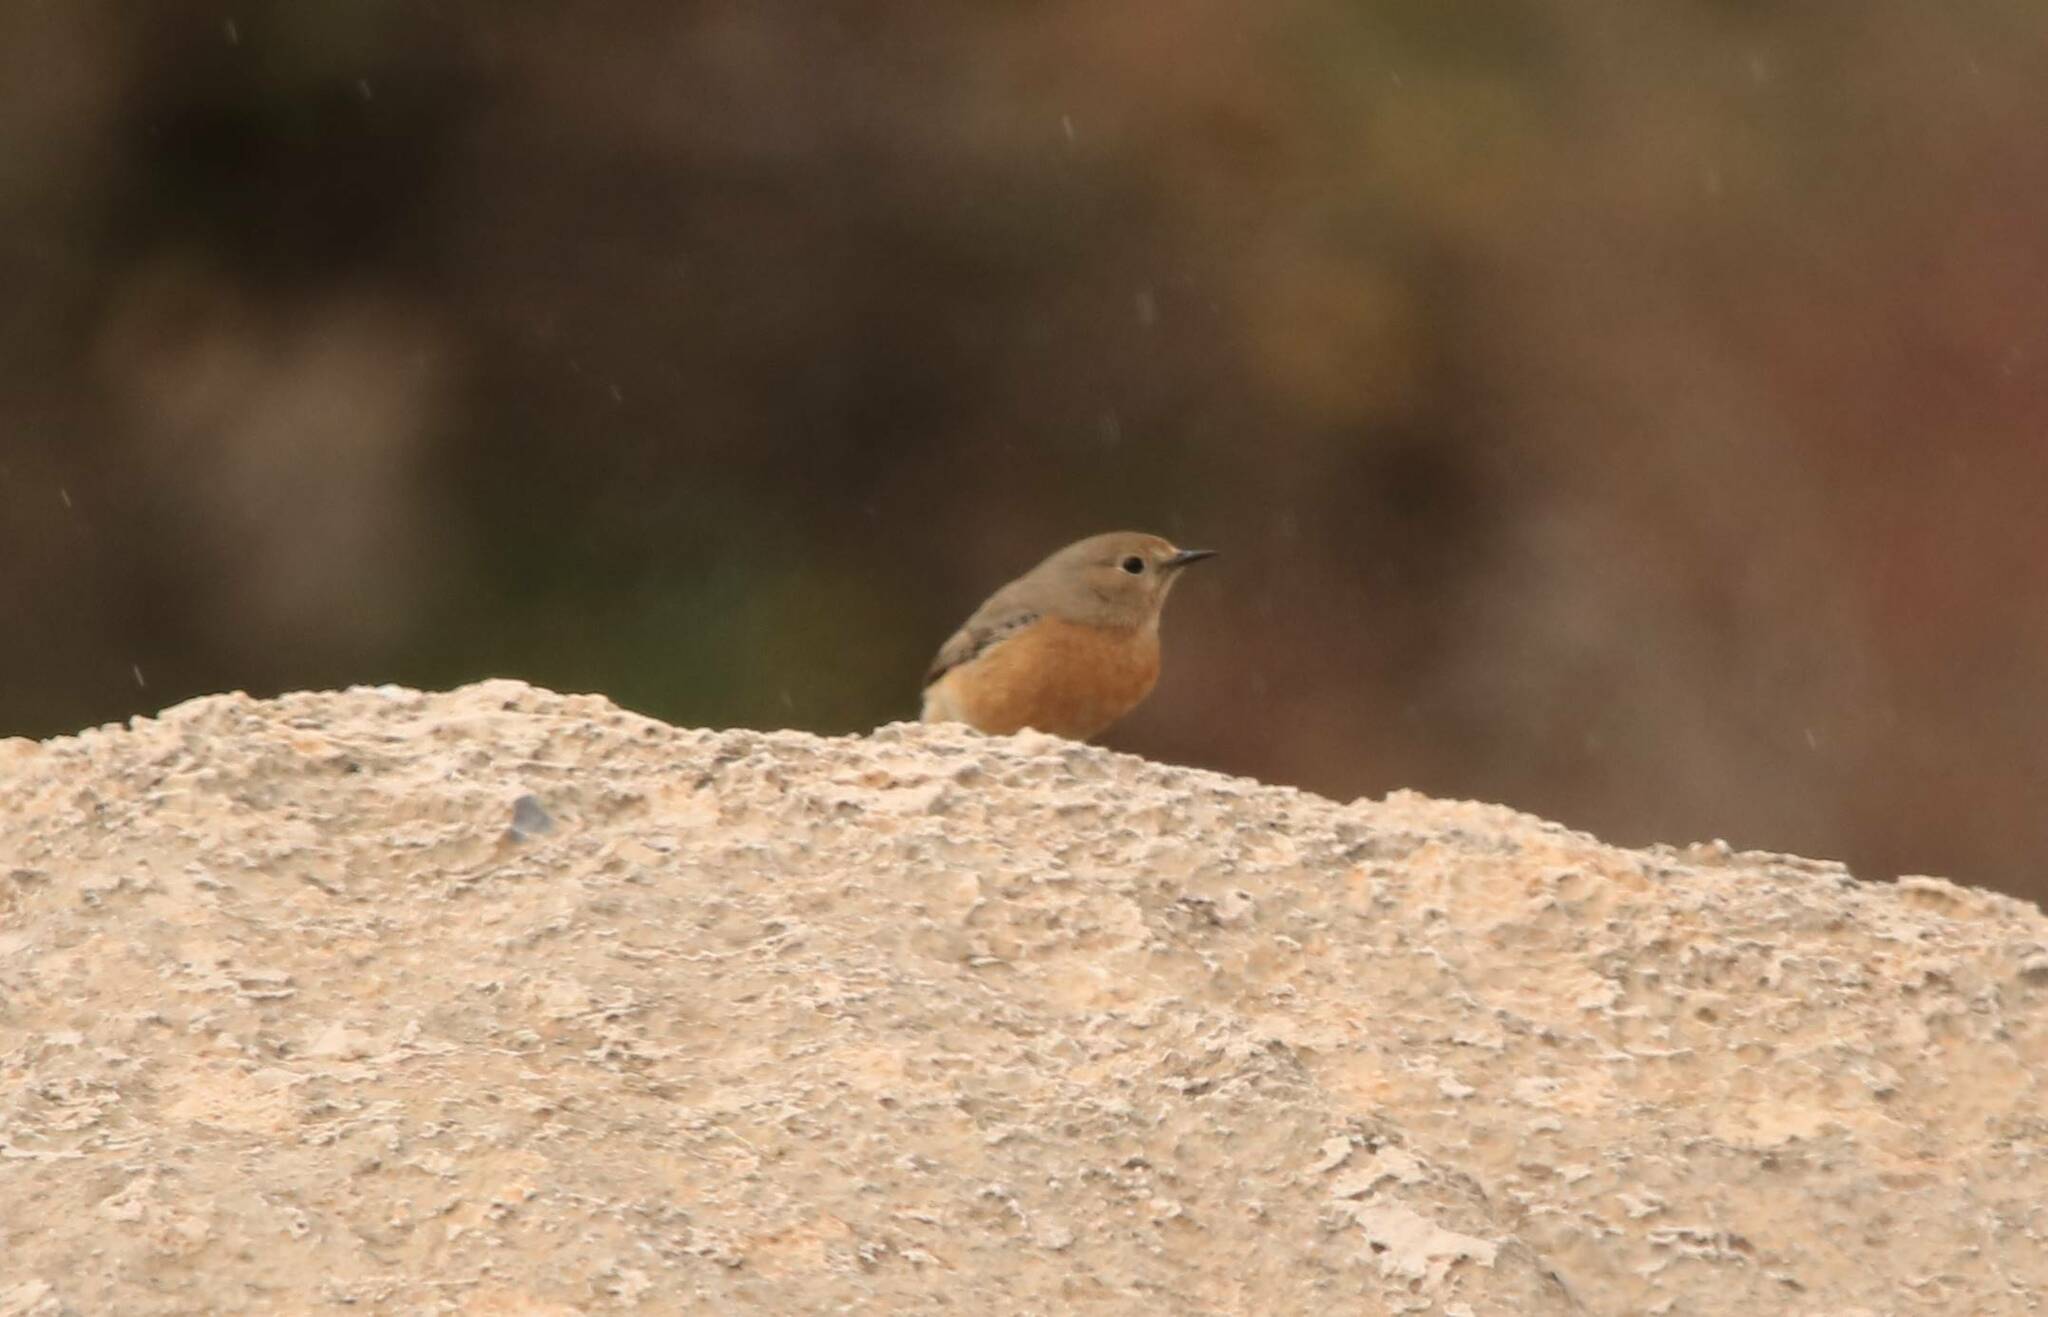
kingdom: Animalia
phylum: Chordata
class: Aves
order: Passeriformes
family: Muscicapidae
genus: Phoenicurus
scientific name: Phoenicurus moussieri
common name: Moussier's redstart
